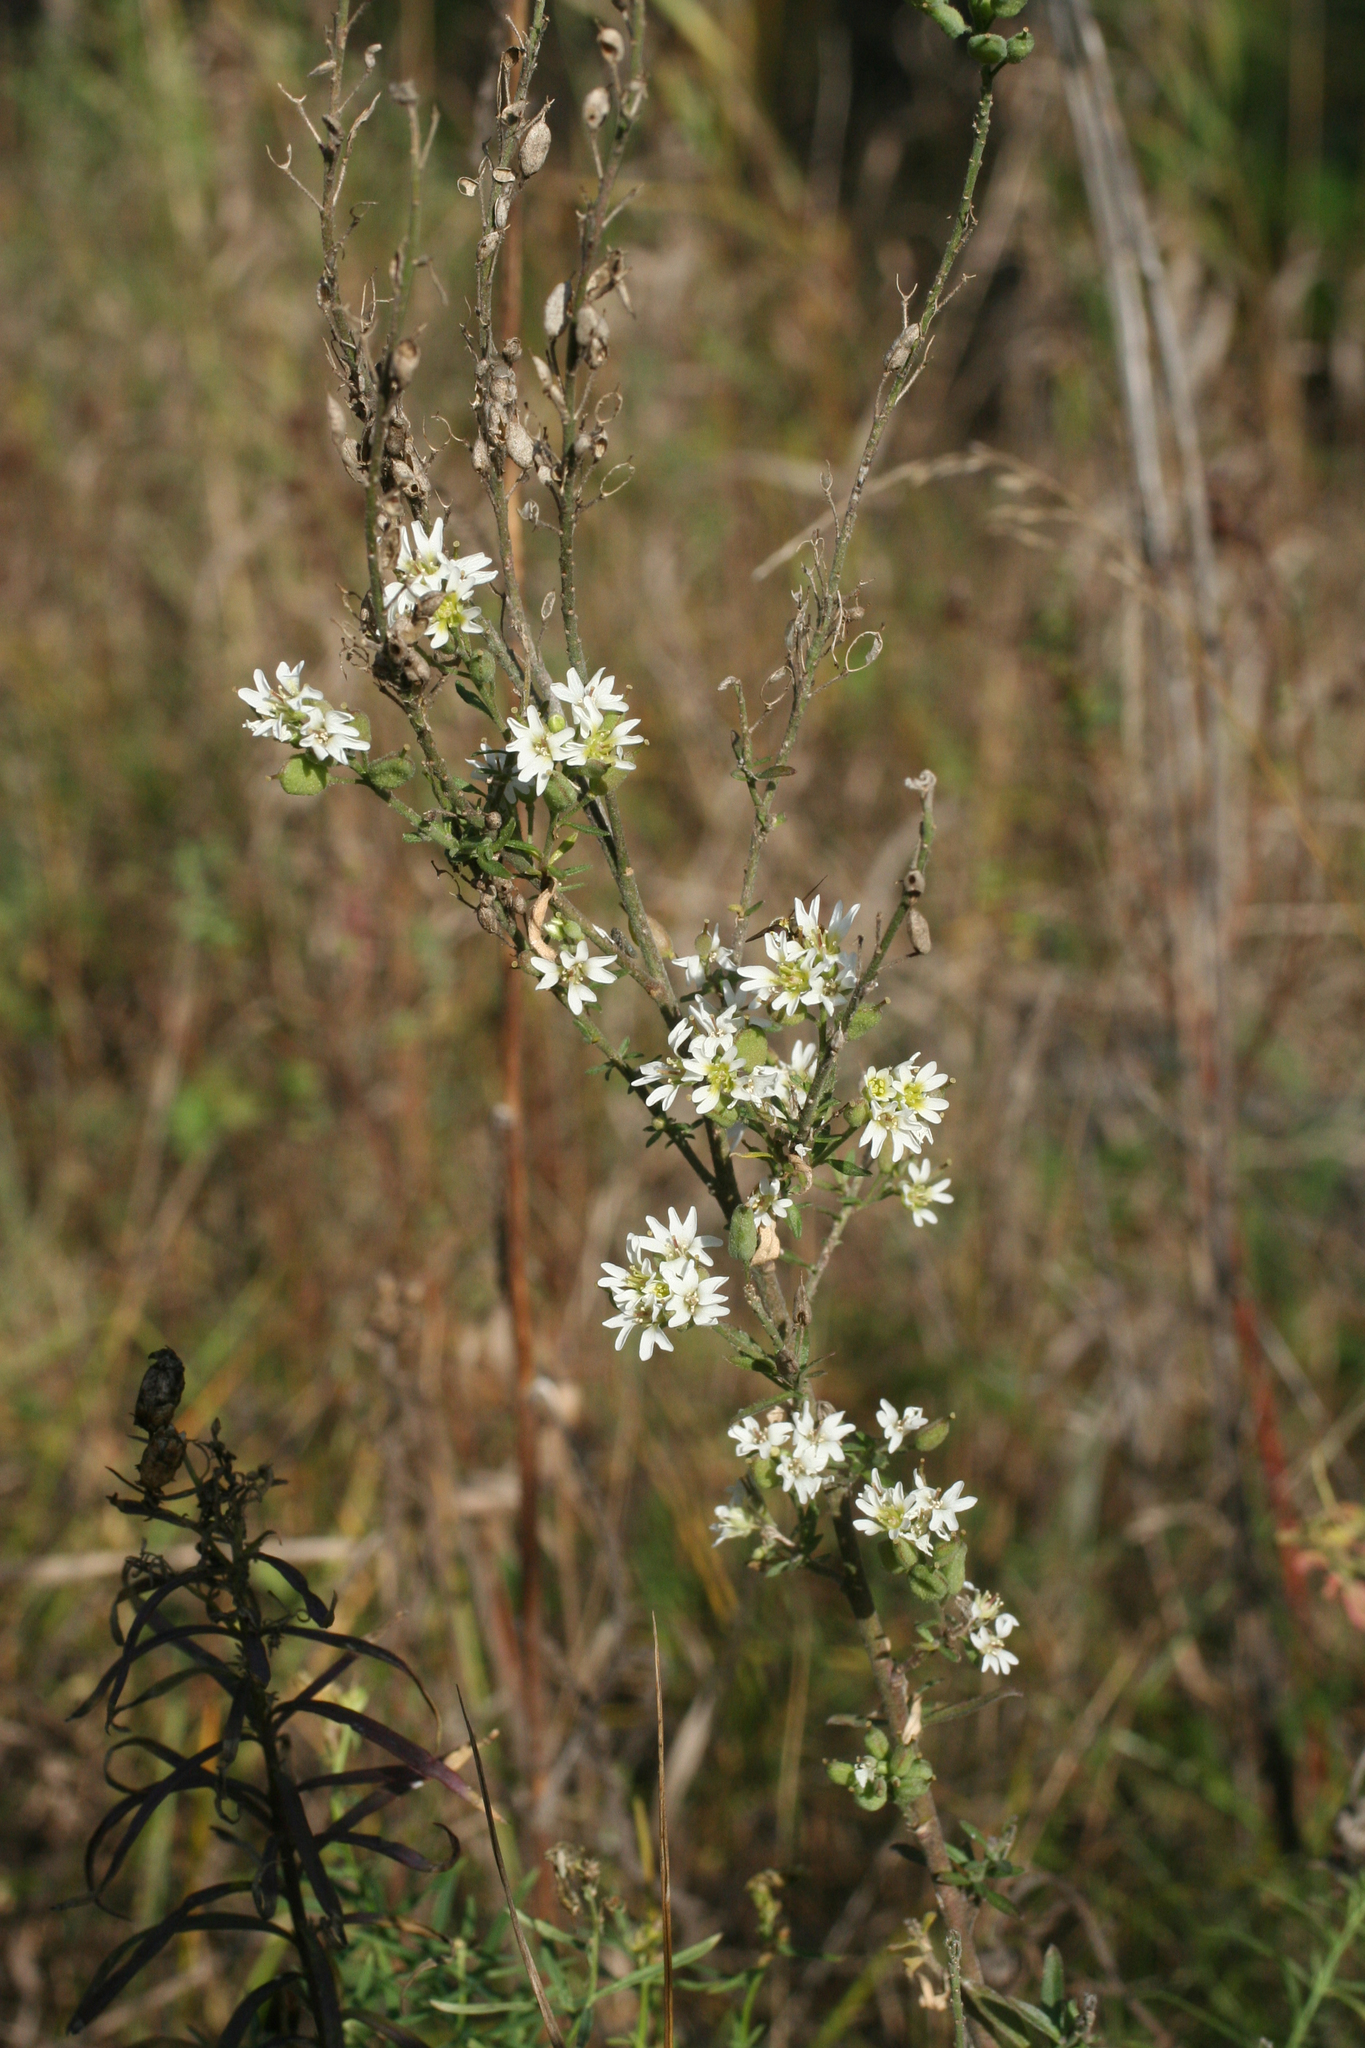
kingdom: Plantae
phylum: Tracheophyta
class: Magnoliopsida
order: Brassicales
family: Brassicaceae
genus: Berteroa
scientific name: Berteroa incana
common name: Hoary alison
